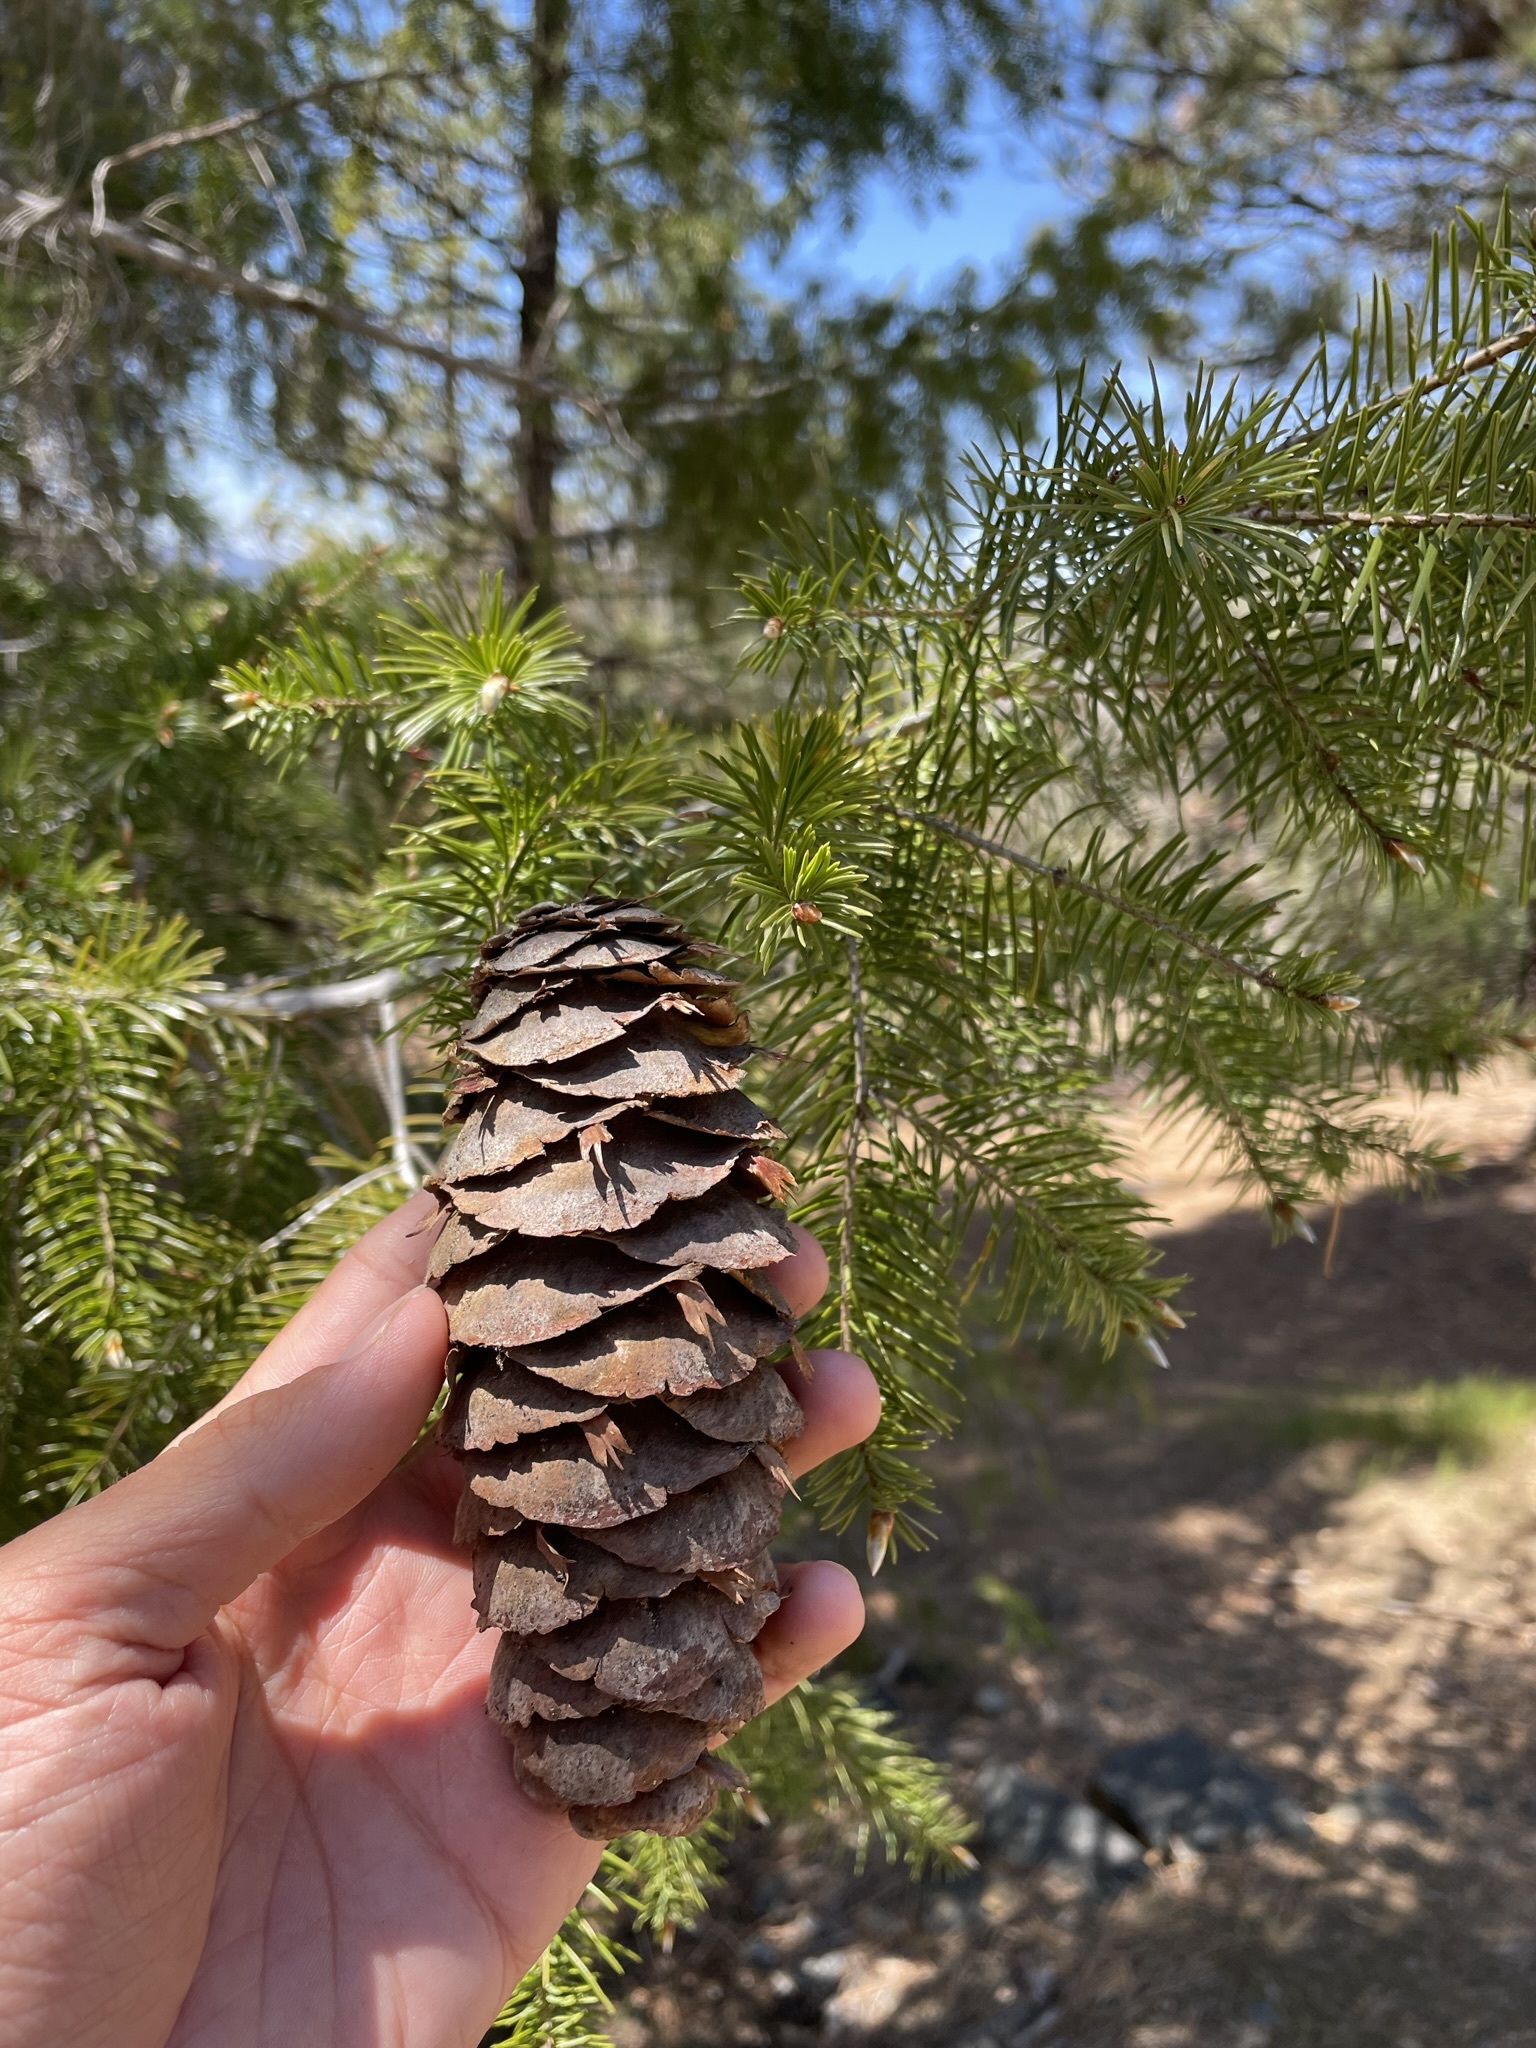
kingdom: Plantae
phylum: Tracheophyta
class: Pinopsida
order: Pinales
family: Pinaceae
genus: Pseudotsuga
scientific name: Pseudotsuga macrocarpa
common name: Big-cone douglas-fir
